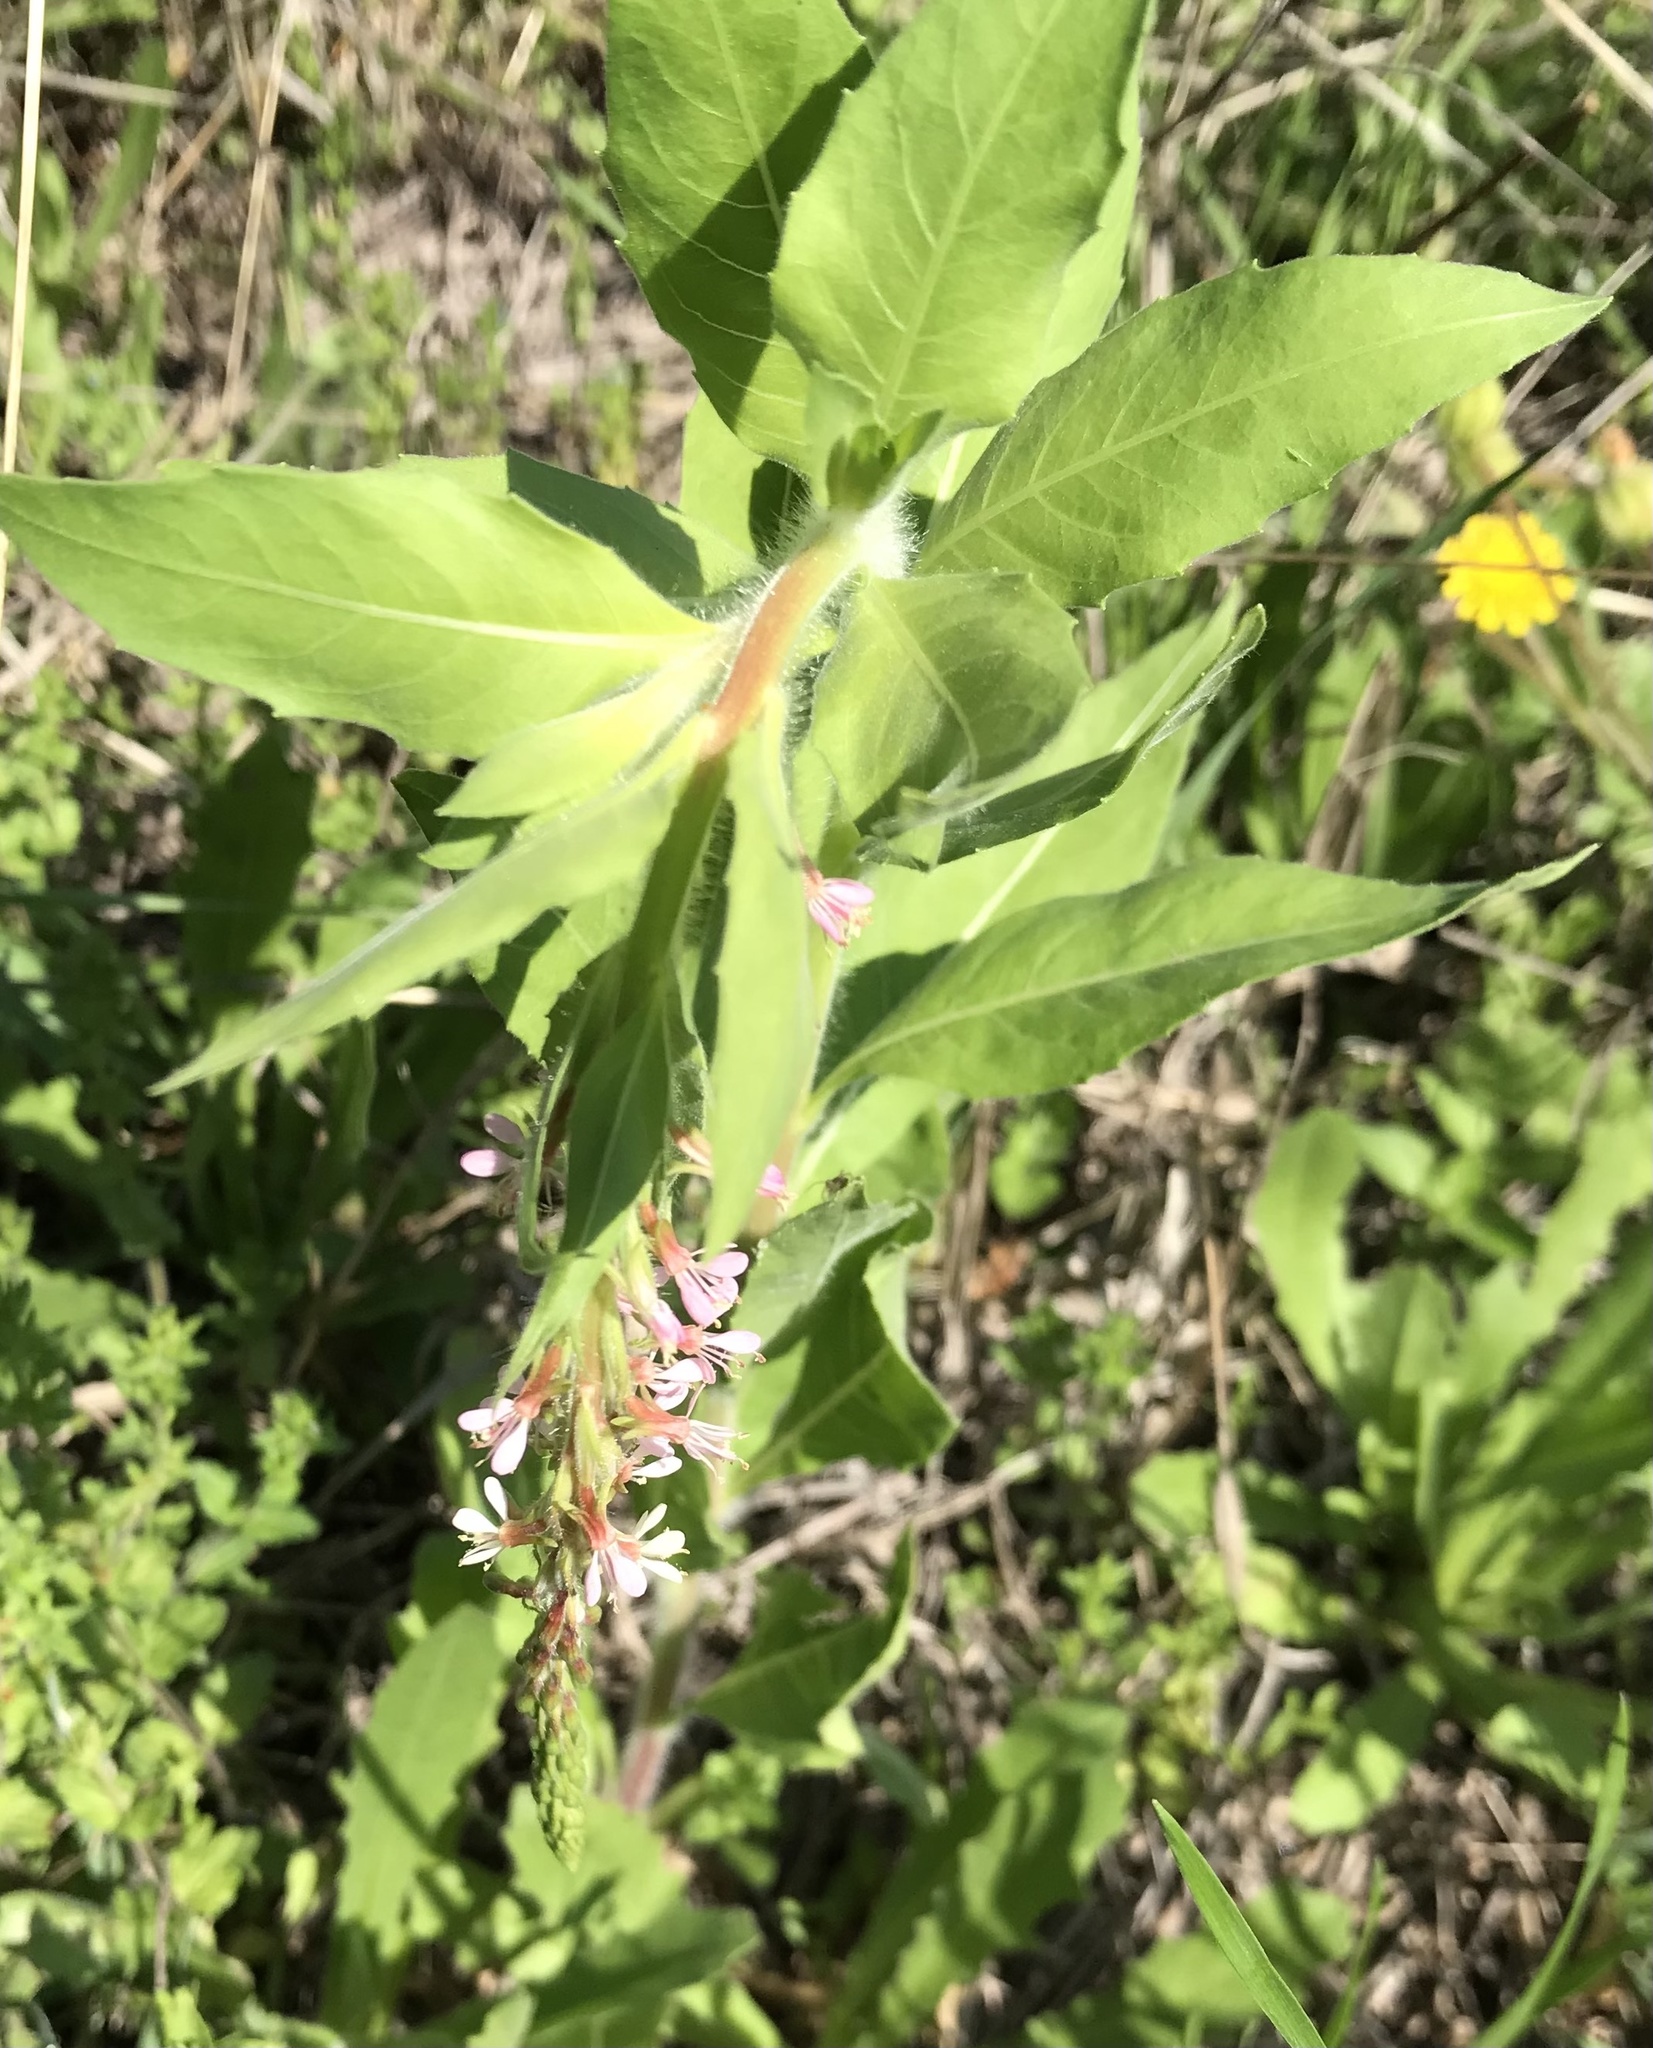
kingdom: Plantae
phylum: Tracheophyta
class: Magnoliopsida
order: Myrtales
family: Onagraceae
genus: Oenothera
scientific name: Oenothera curtiflora
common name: Velvetweed
